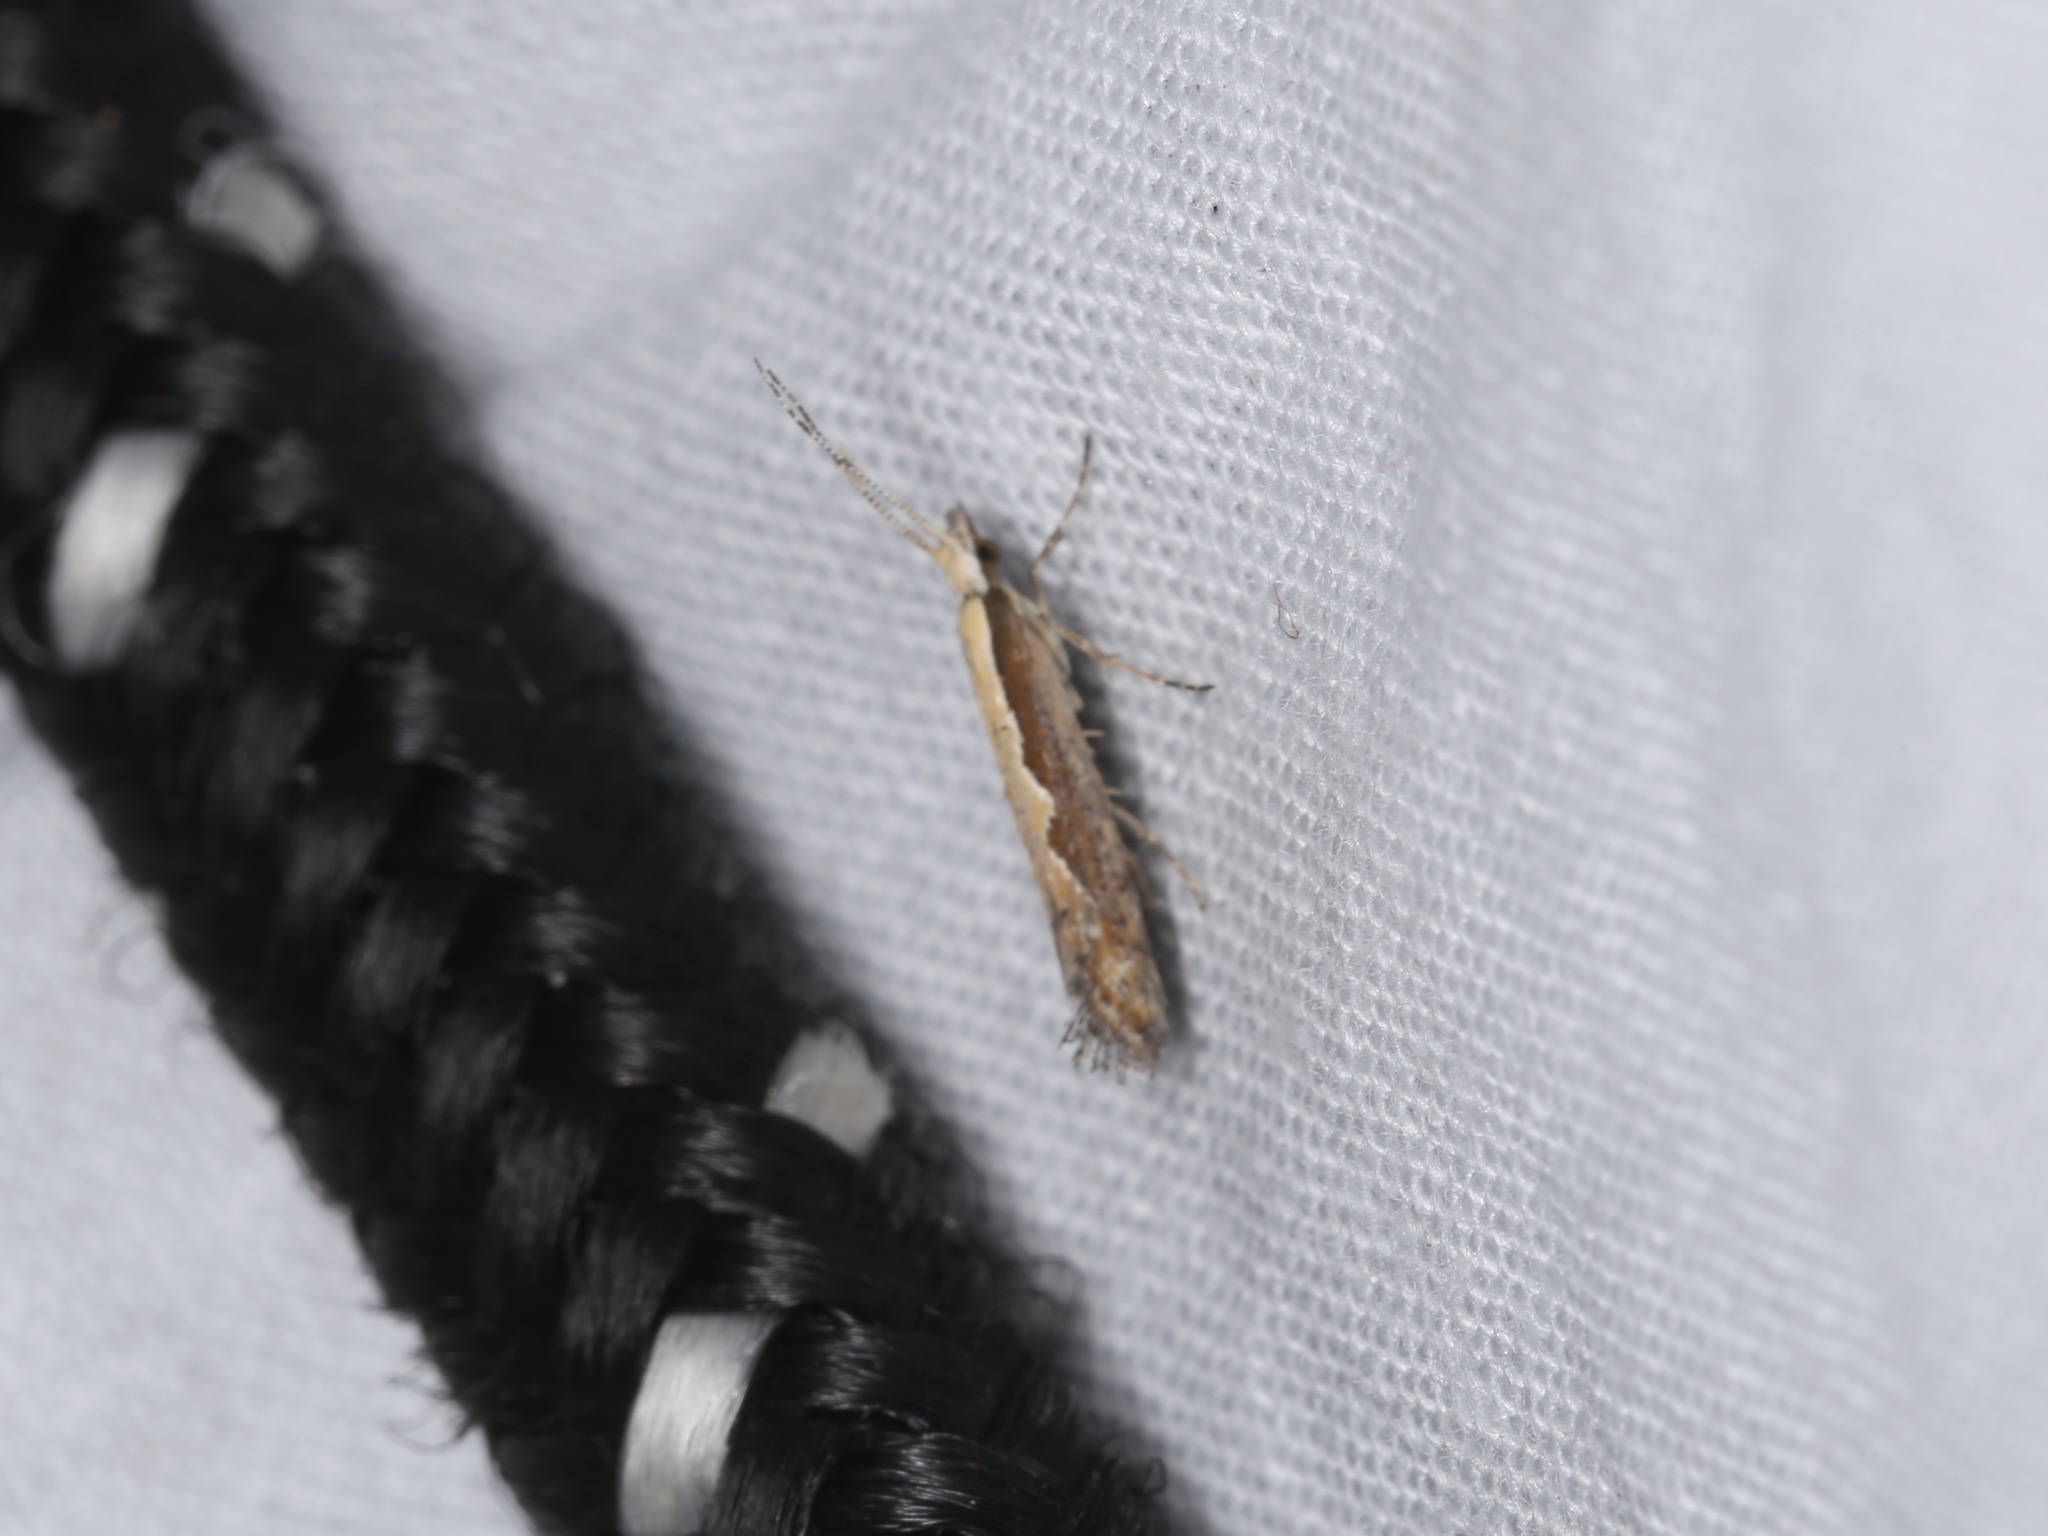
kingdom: Animalia
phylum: Arthropoda
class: Insecta
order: Lepidoptera
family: Plutellidae
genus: Plutella
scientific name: Plutella xylostella
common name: Diamond-back moth
